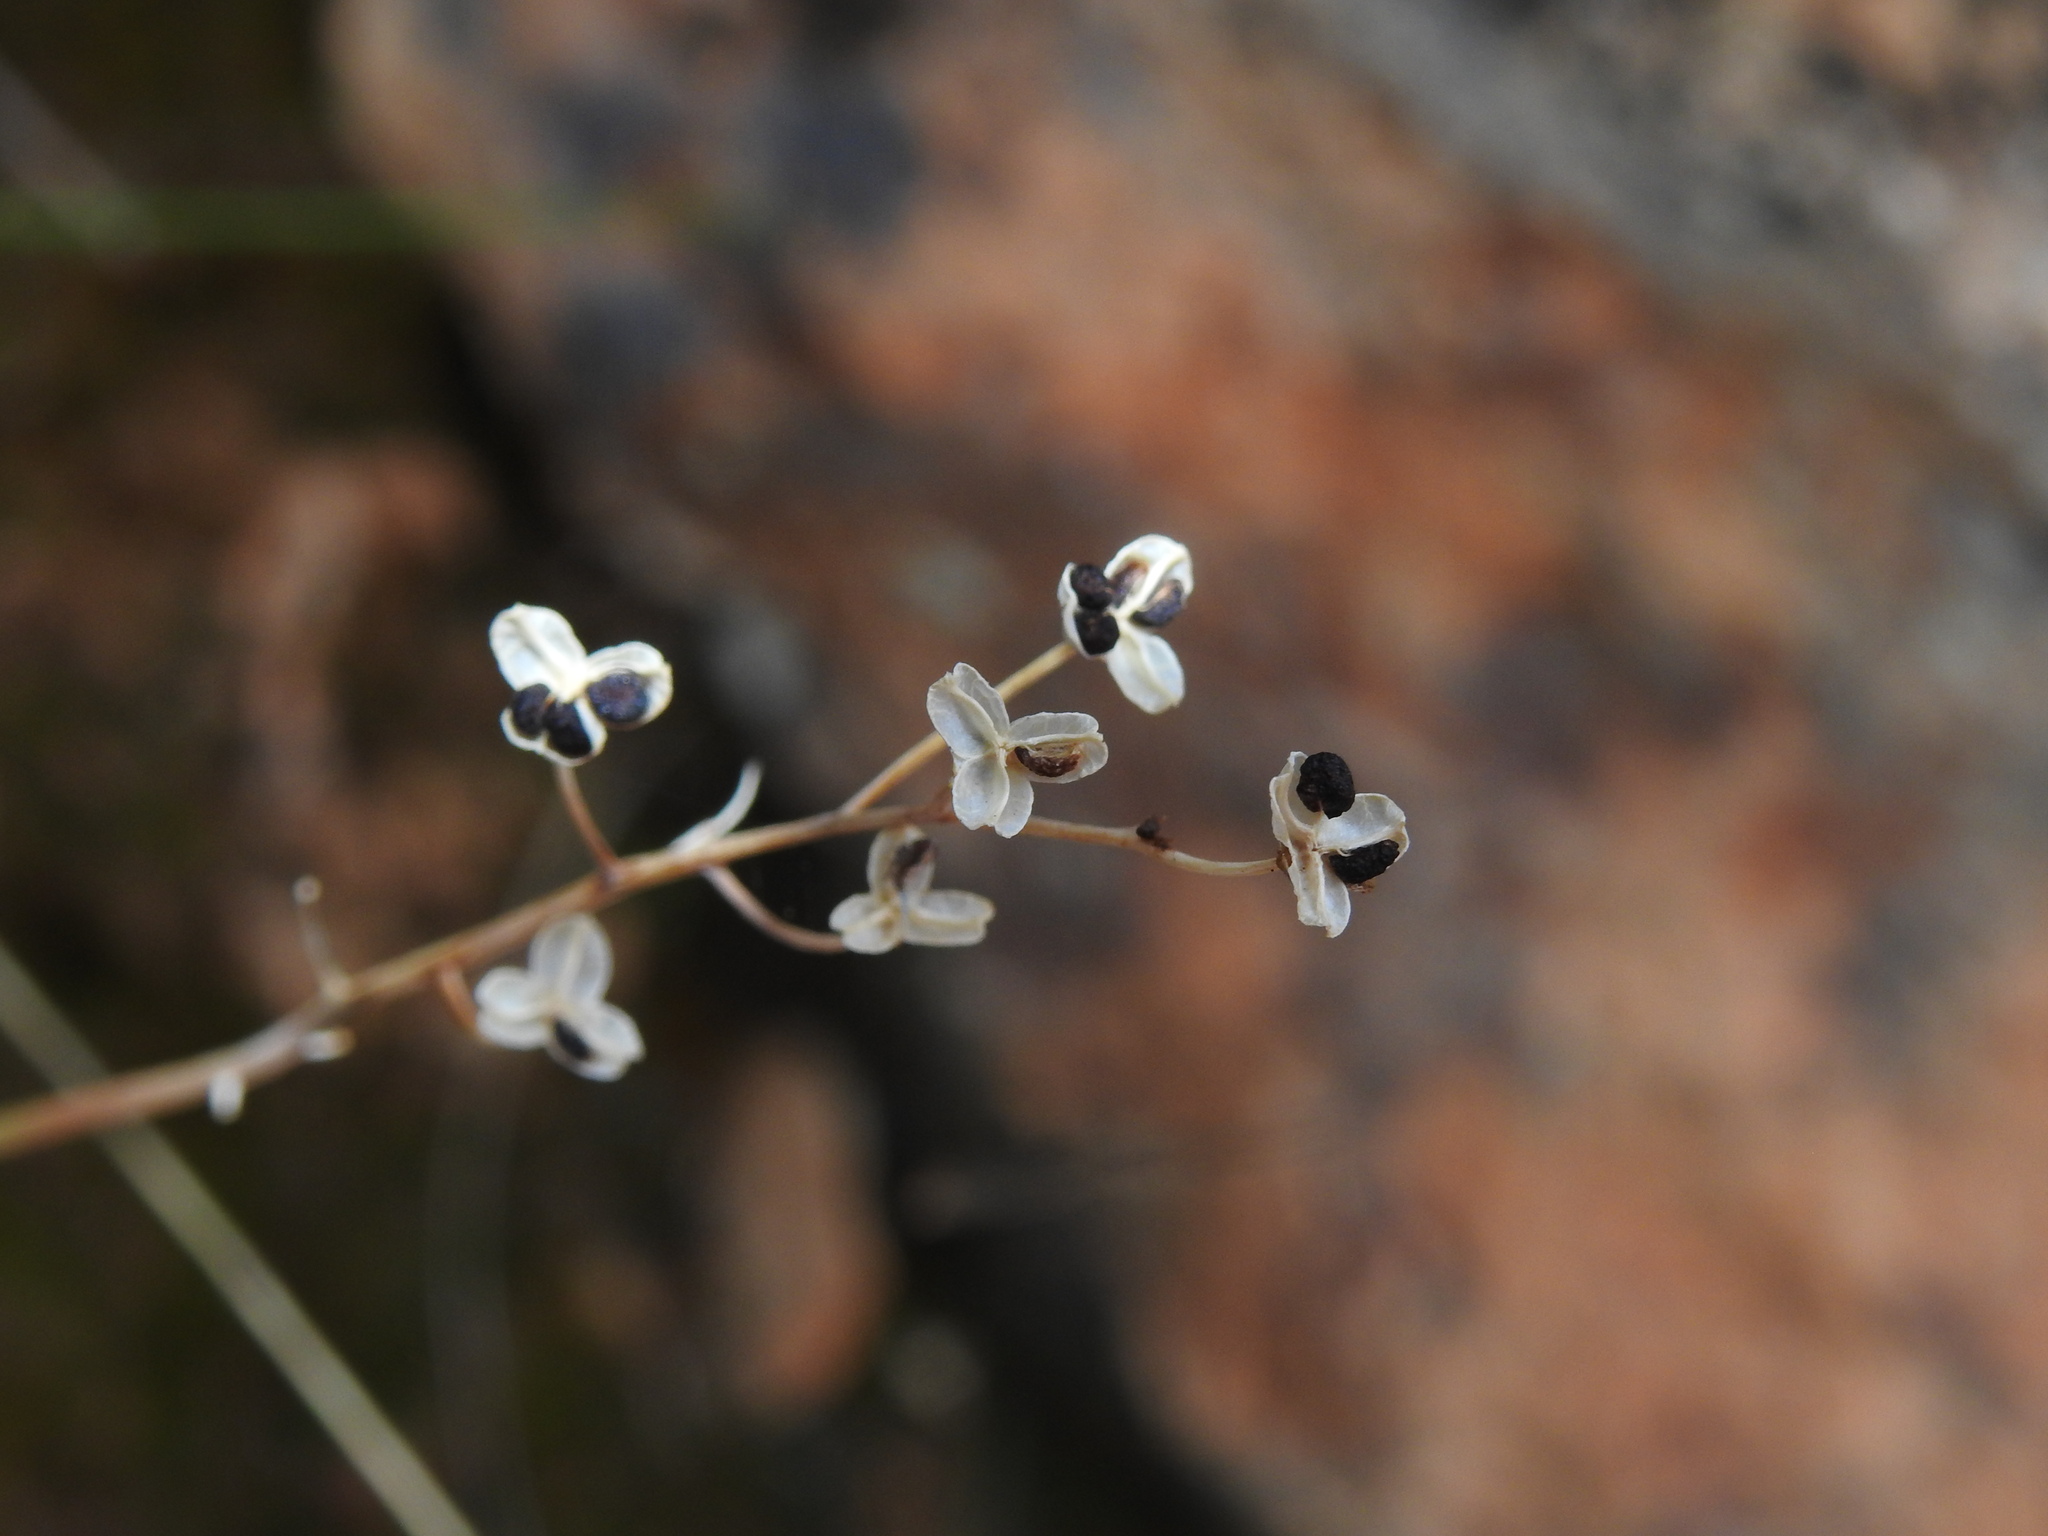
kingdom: Plantae
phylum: Tracheophyta
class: Liliopsida
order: Asparagales
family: Asparagaceae
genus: Prospero
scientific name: Prospero autumnale
